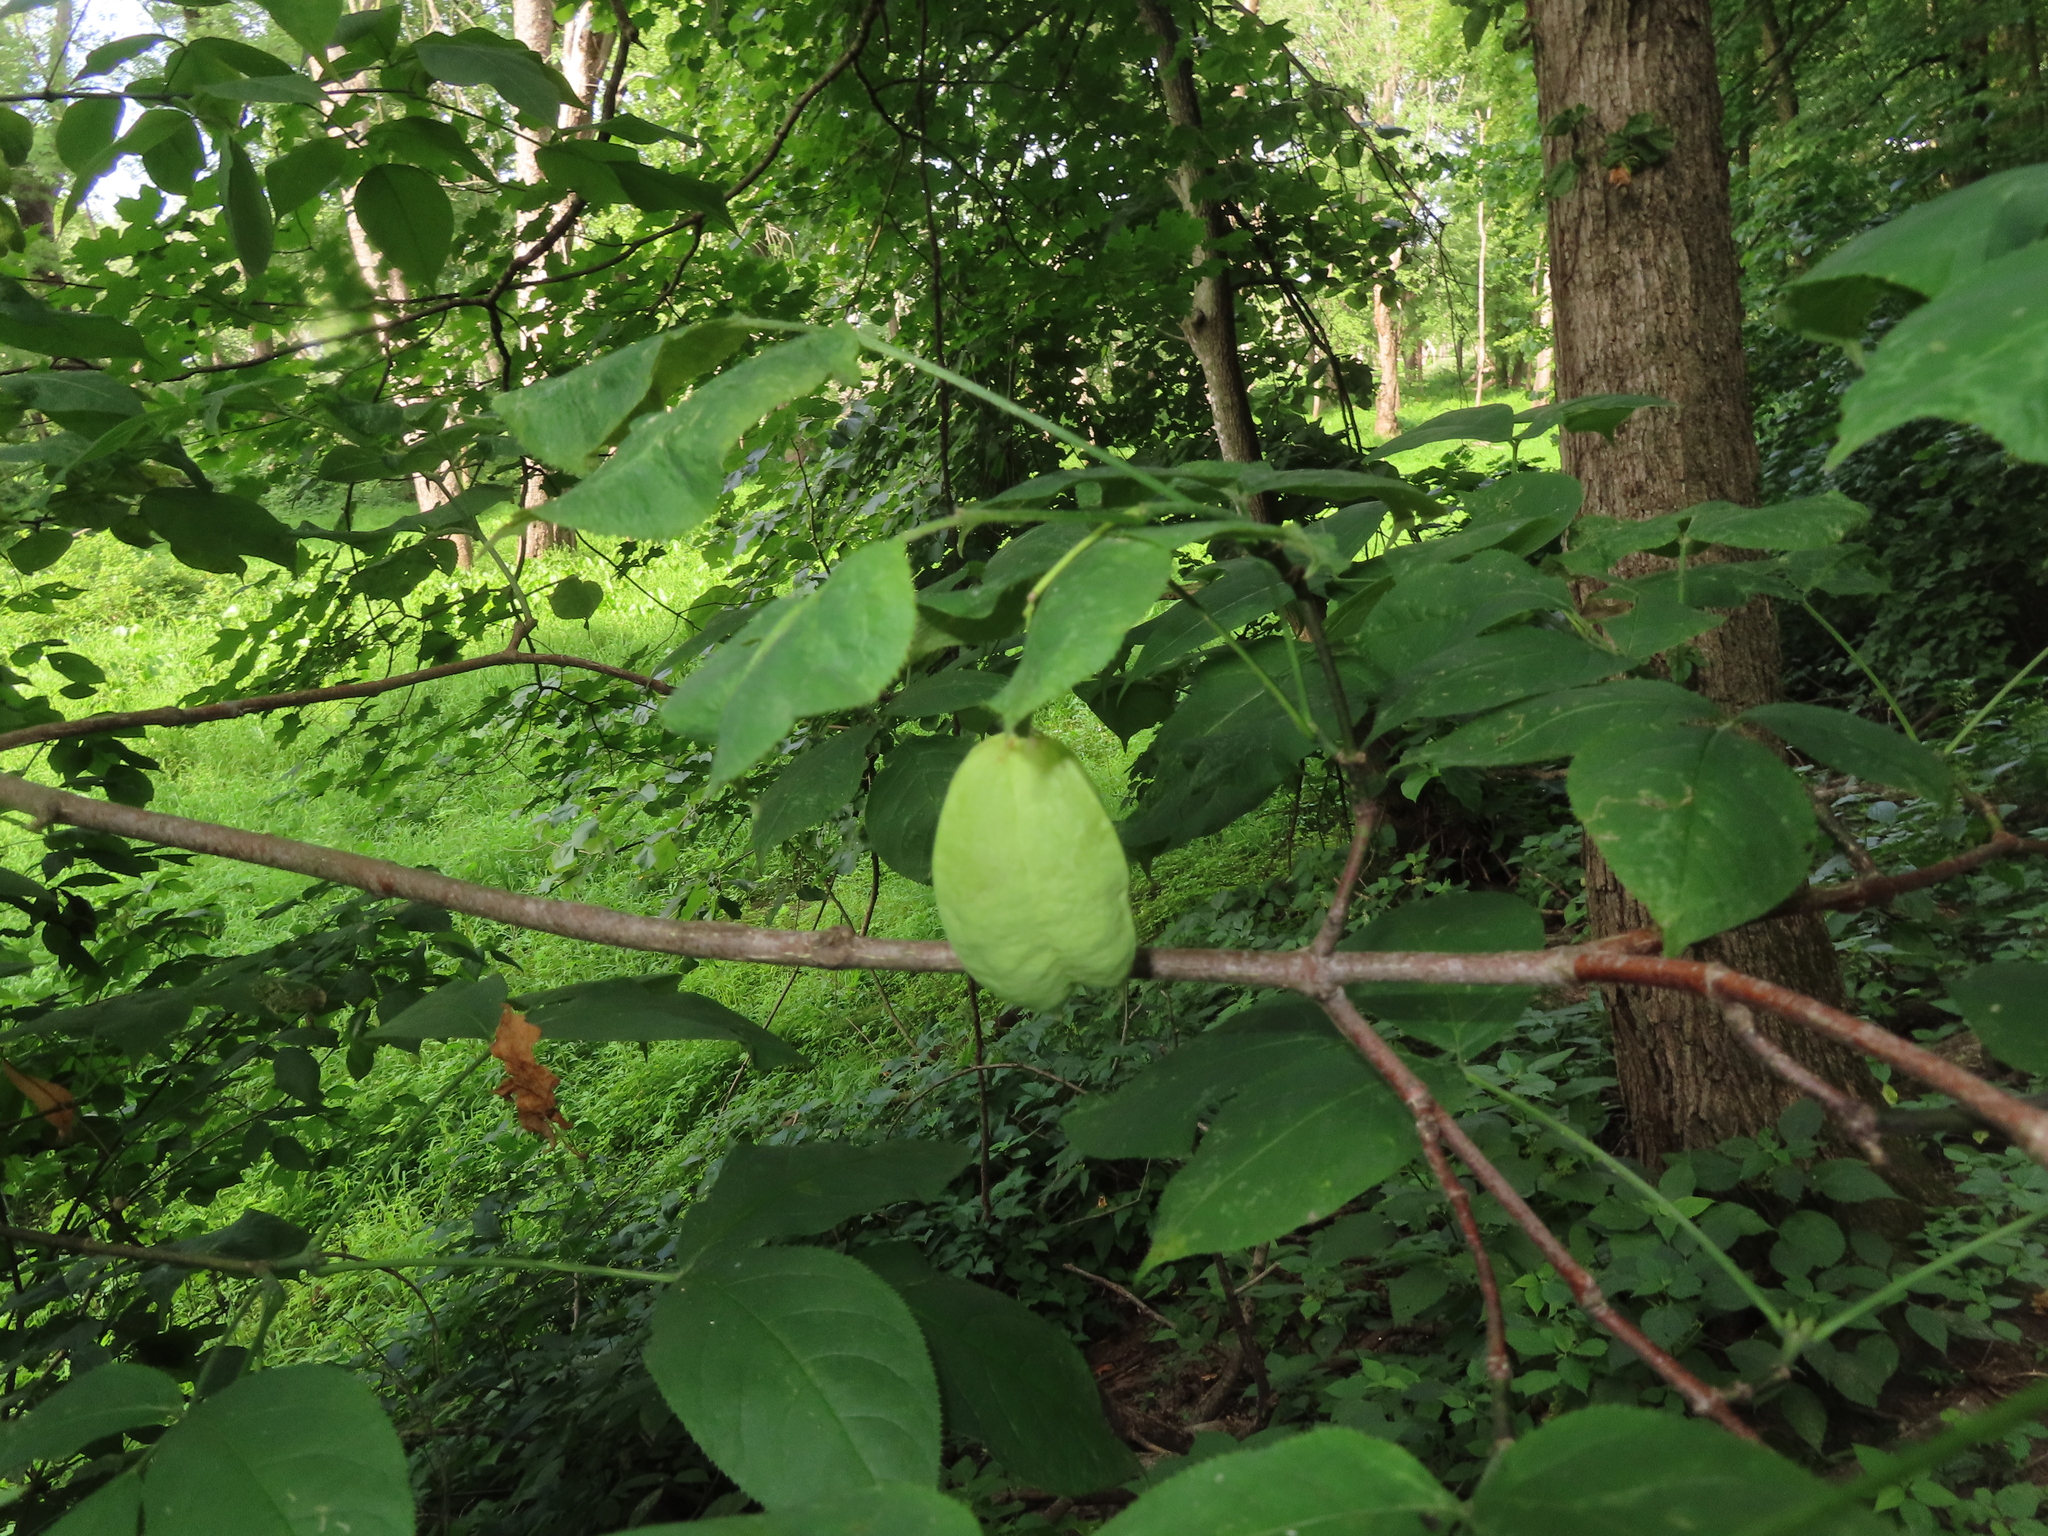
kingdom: Plantae
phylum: Tracheophyta
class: Magnoliopsida
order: Crossosomatales
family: Staphyleaceae
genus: Staphylea
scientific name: Staphylea trifolia
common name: American bladdernut
